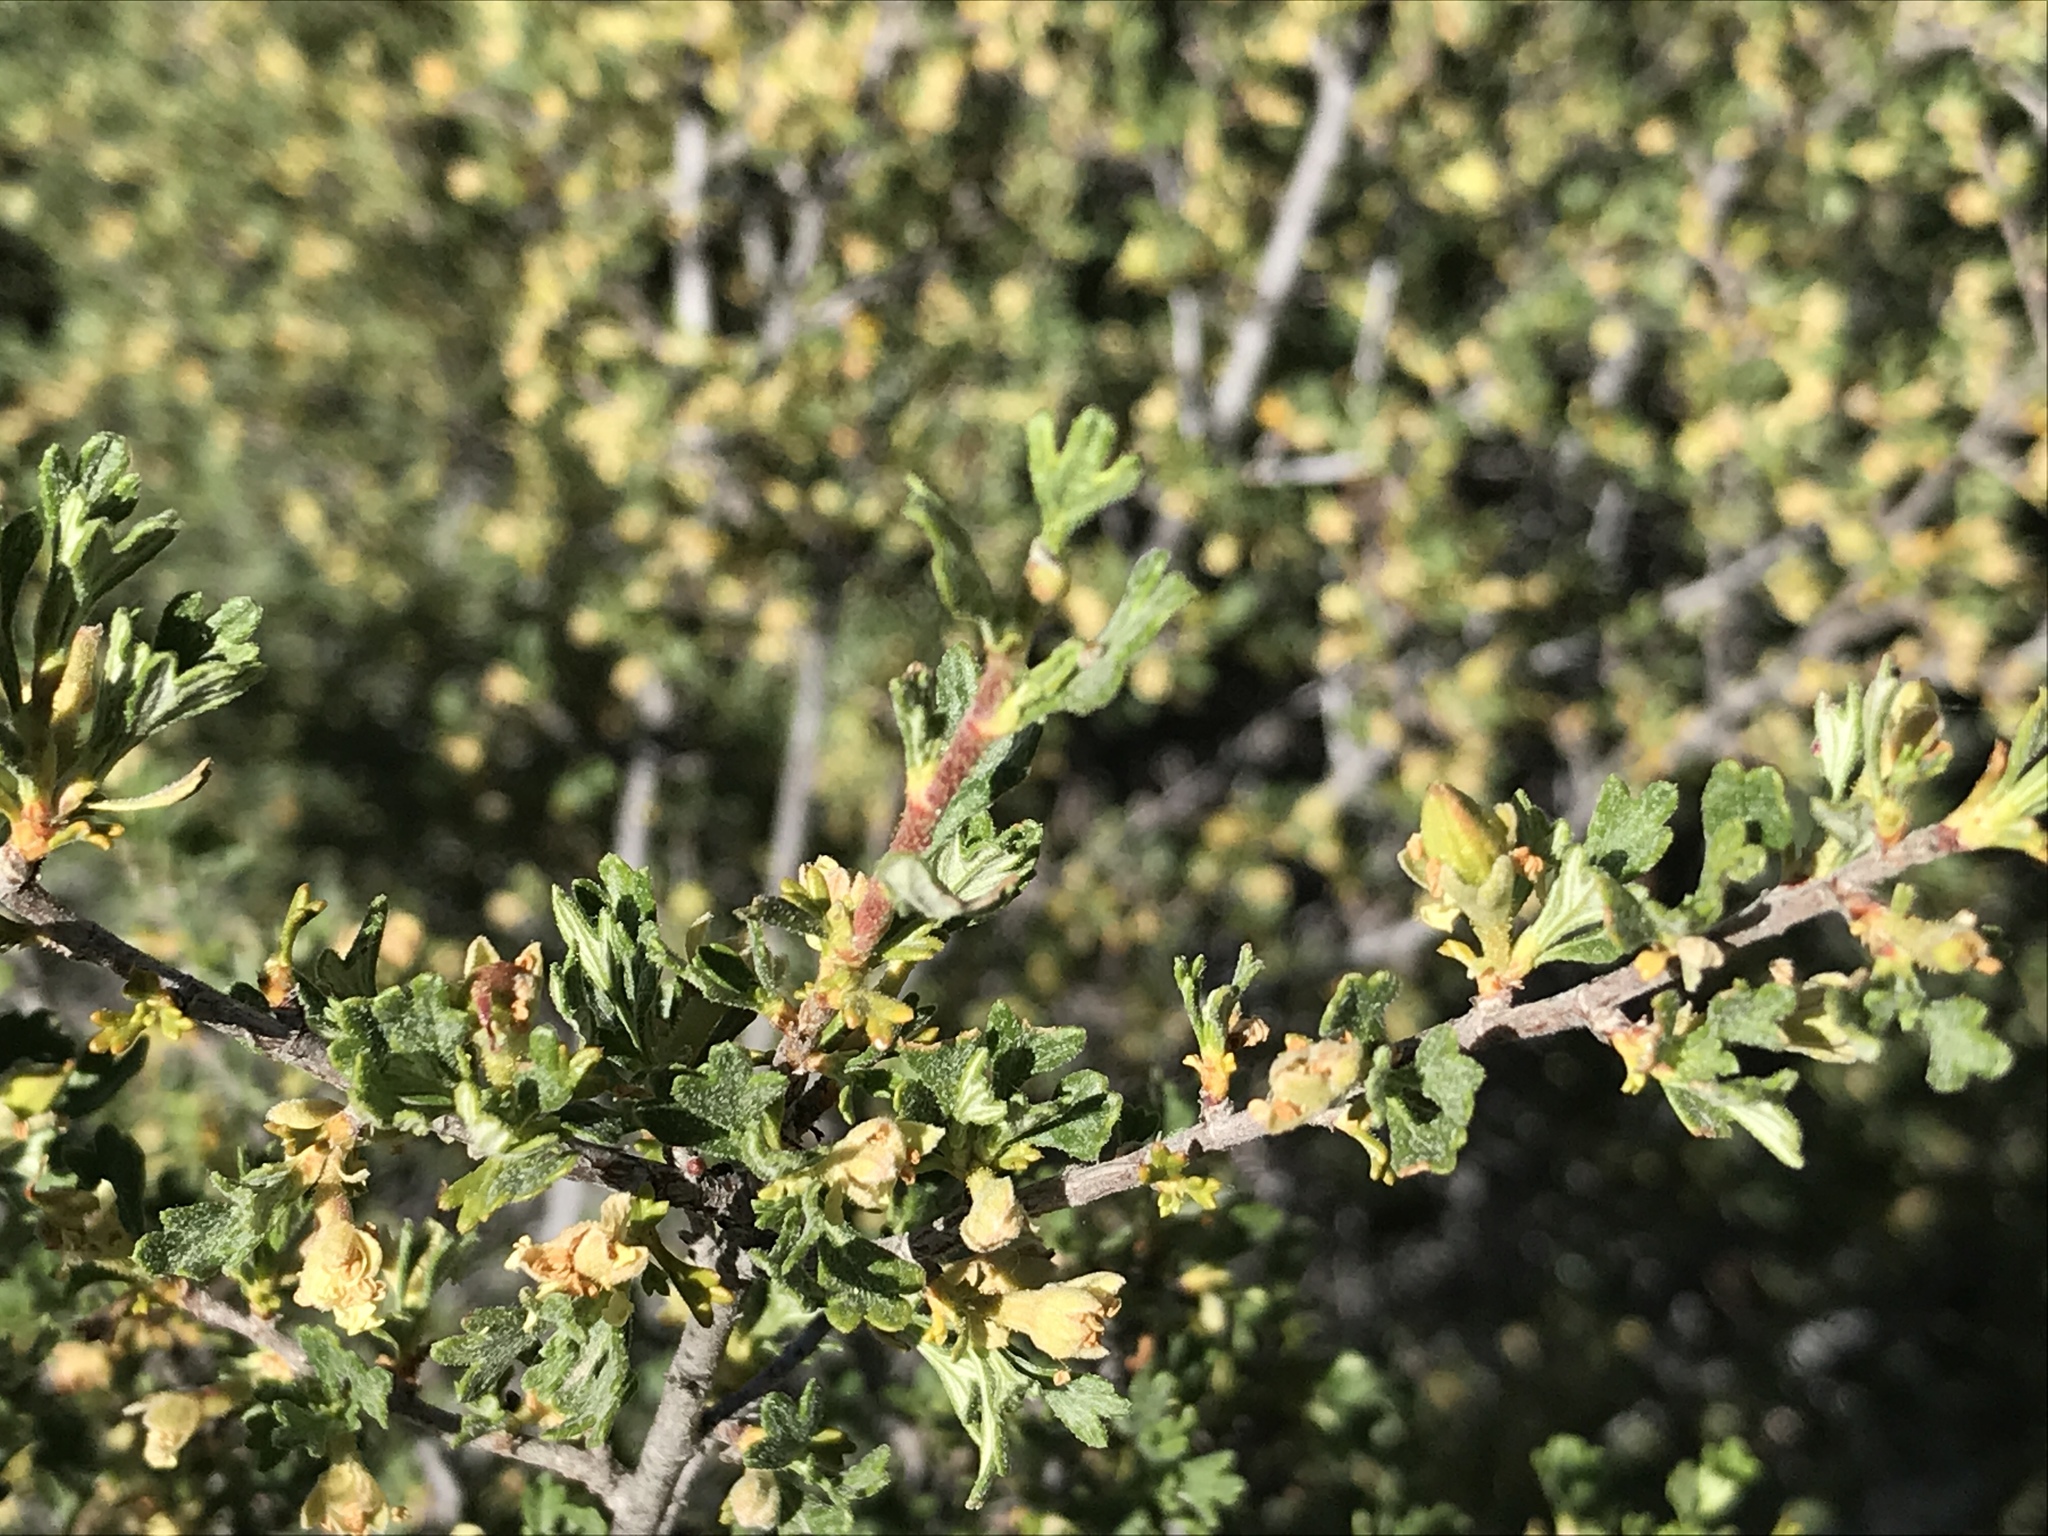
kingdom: Plantae
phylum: Tracheophyta
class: Magnoliopsida
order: Rosales
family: Rosaceae
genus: Purshia
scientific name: Purshia tridentata
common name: Antelope bitterbrush
